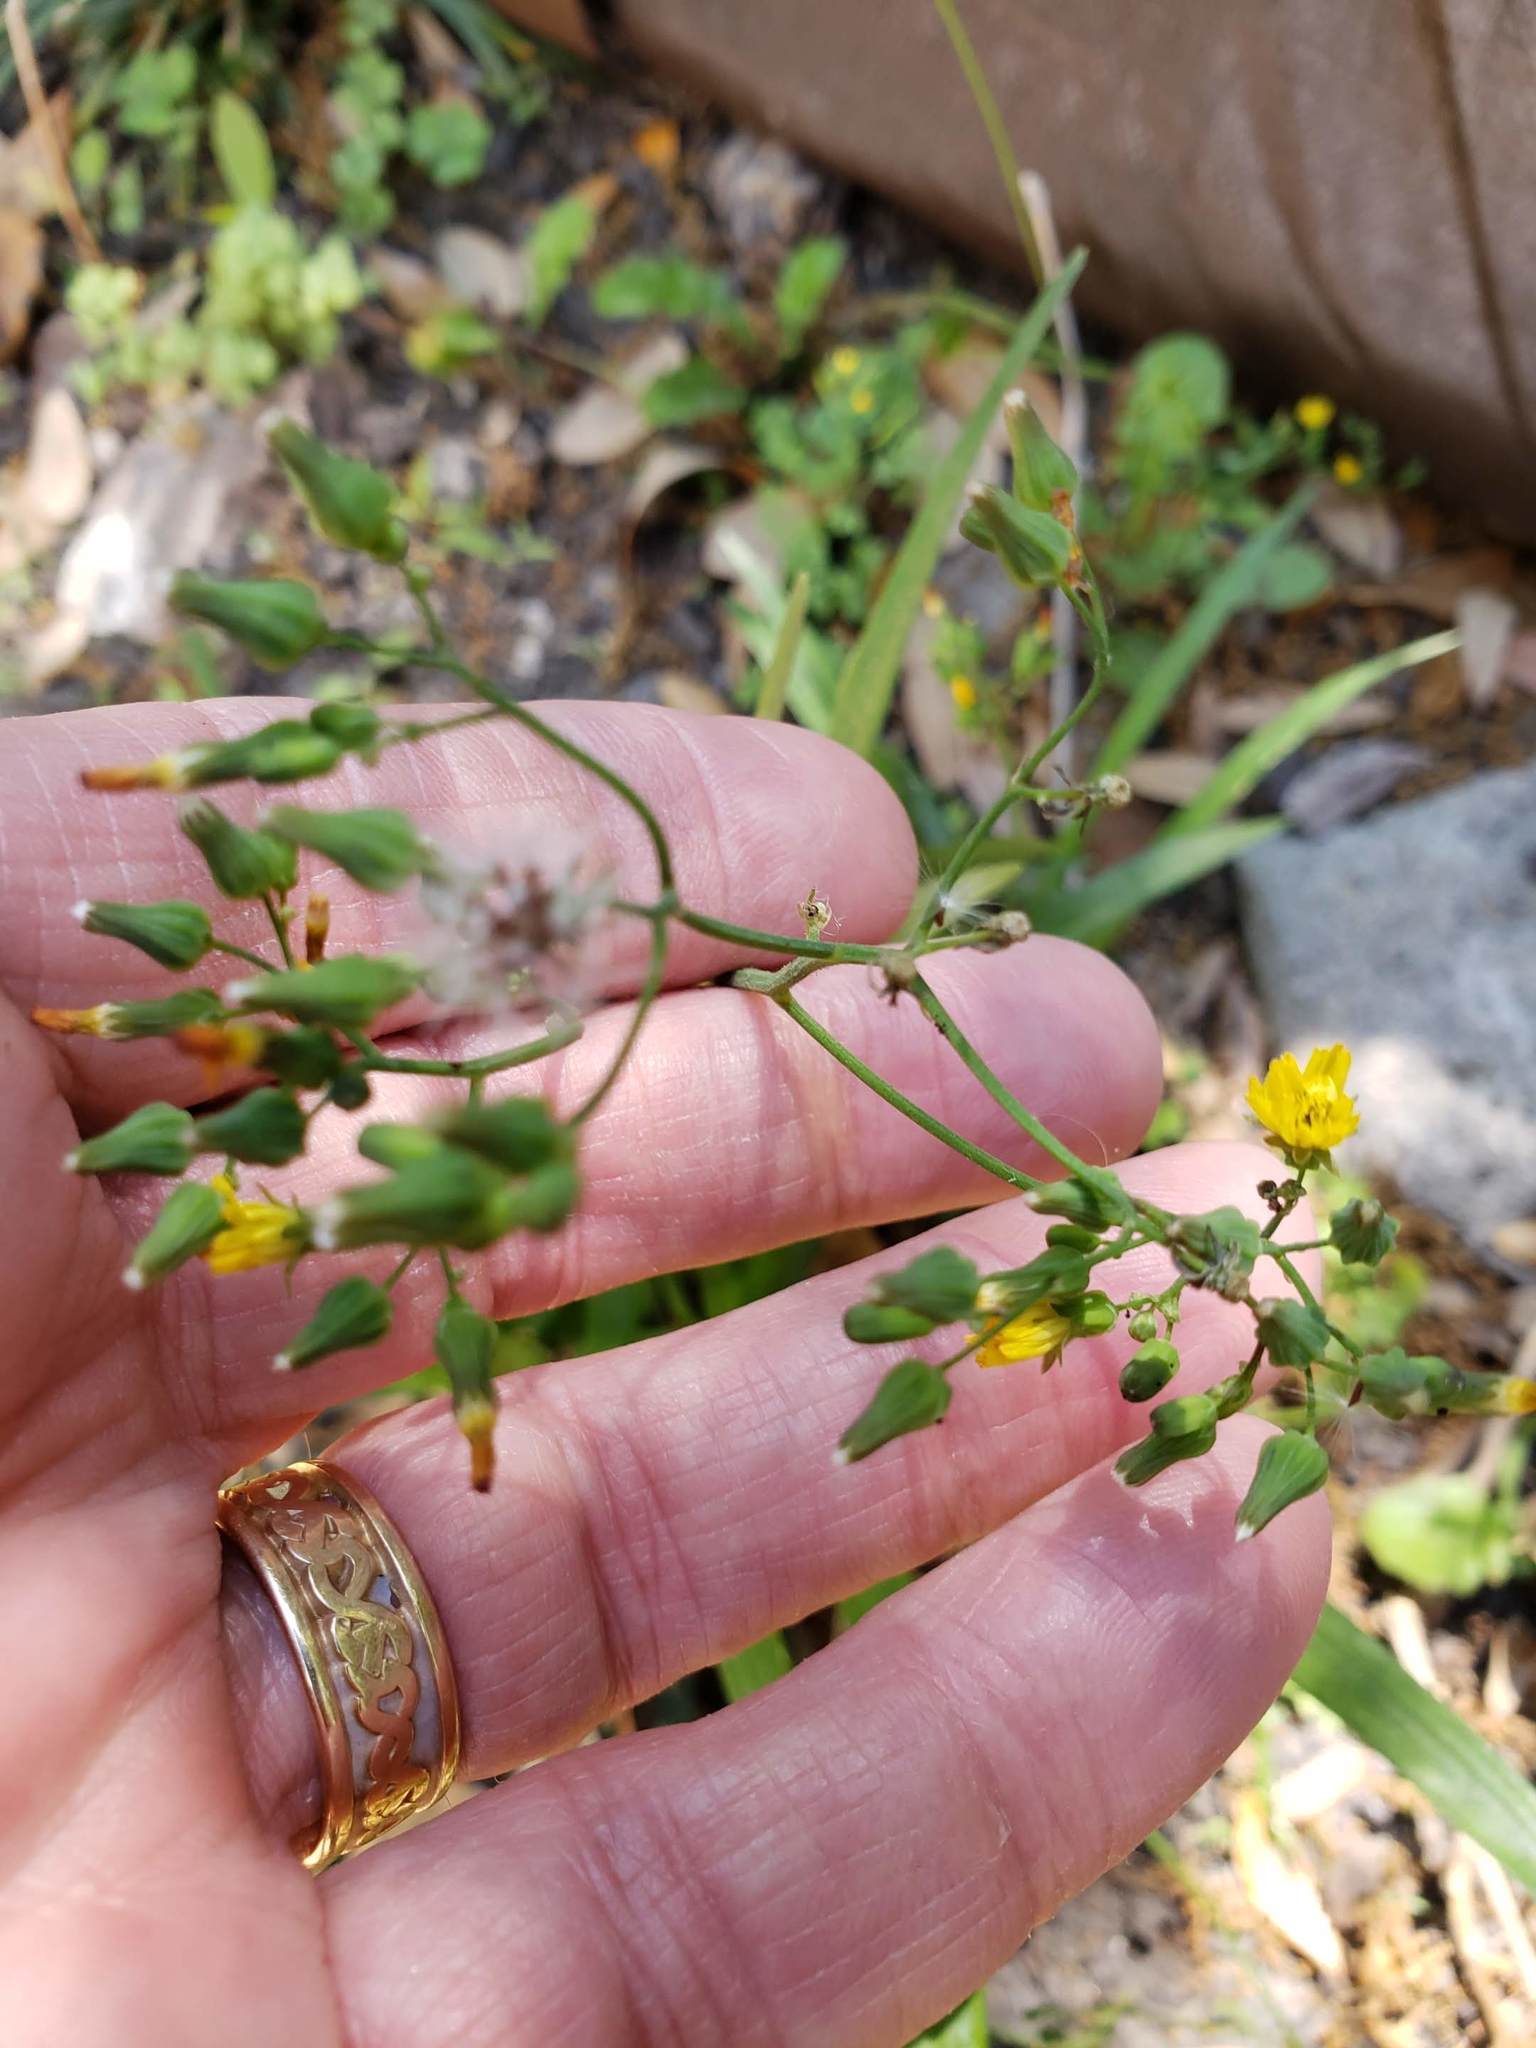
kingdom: Plantae
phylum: Tracheophyta
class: Magnoliopsida
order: Asterales
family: Asteraceae
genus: Youngia
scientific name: Youngia japonica
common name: Oriental false hawksbeard
